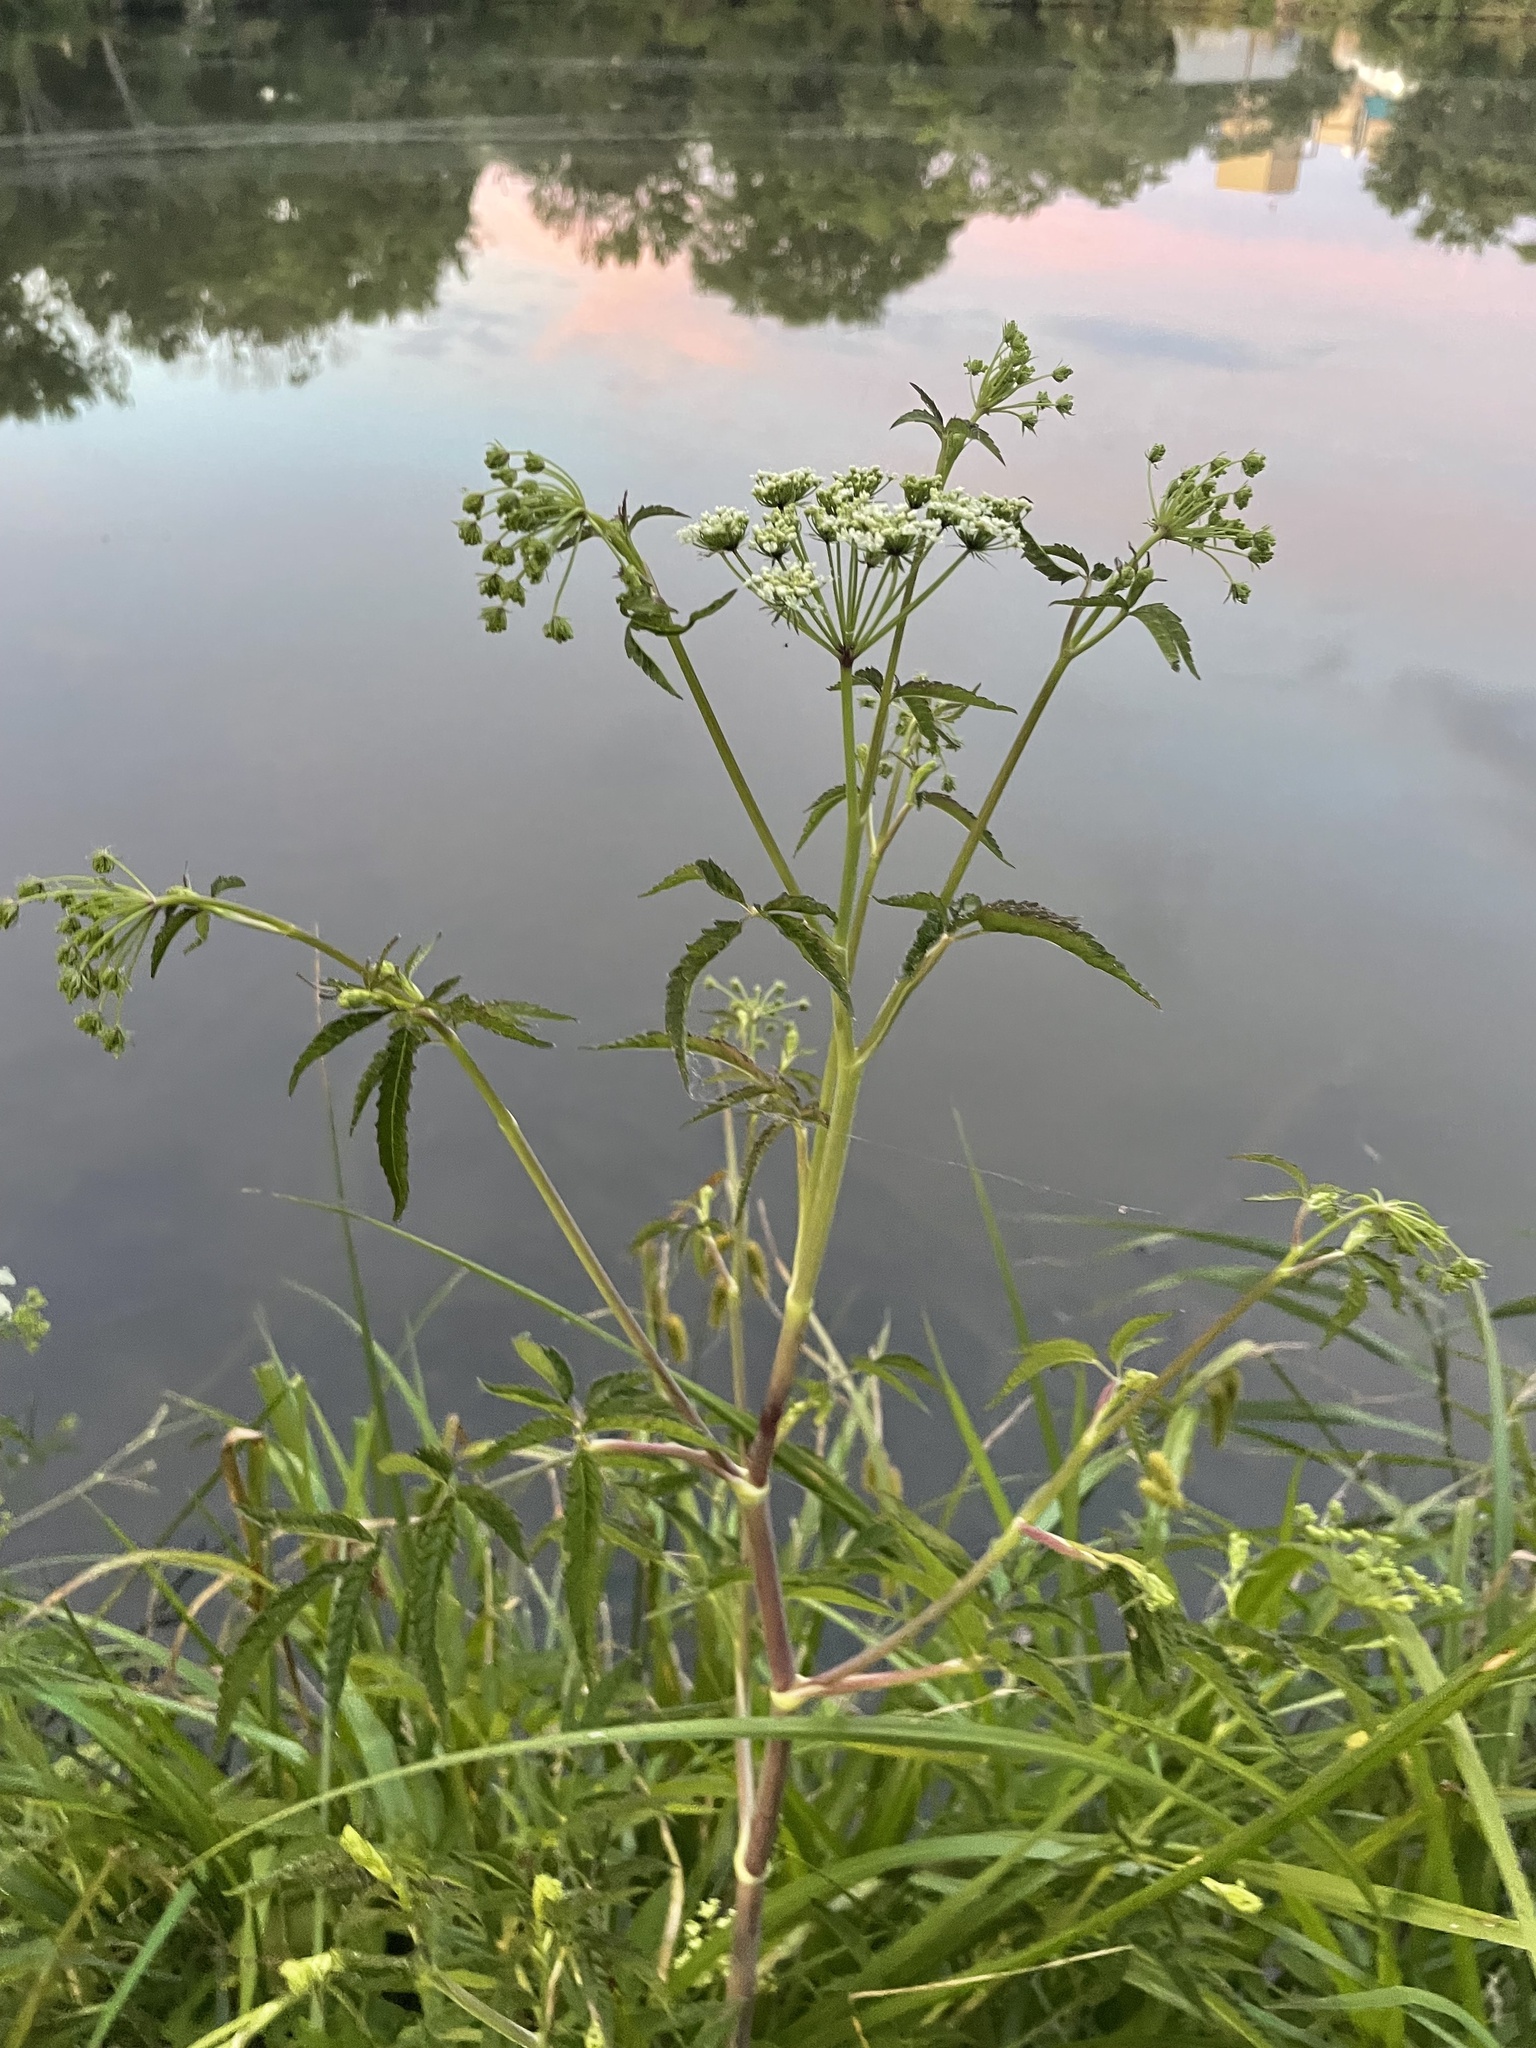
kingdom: Plantae
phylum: Tracheophyta
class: Magnoliopsida
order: Apiales
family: Apiaceae
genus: Cicuta
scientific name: Cicuta maculata
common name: Spotted cowbane
